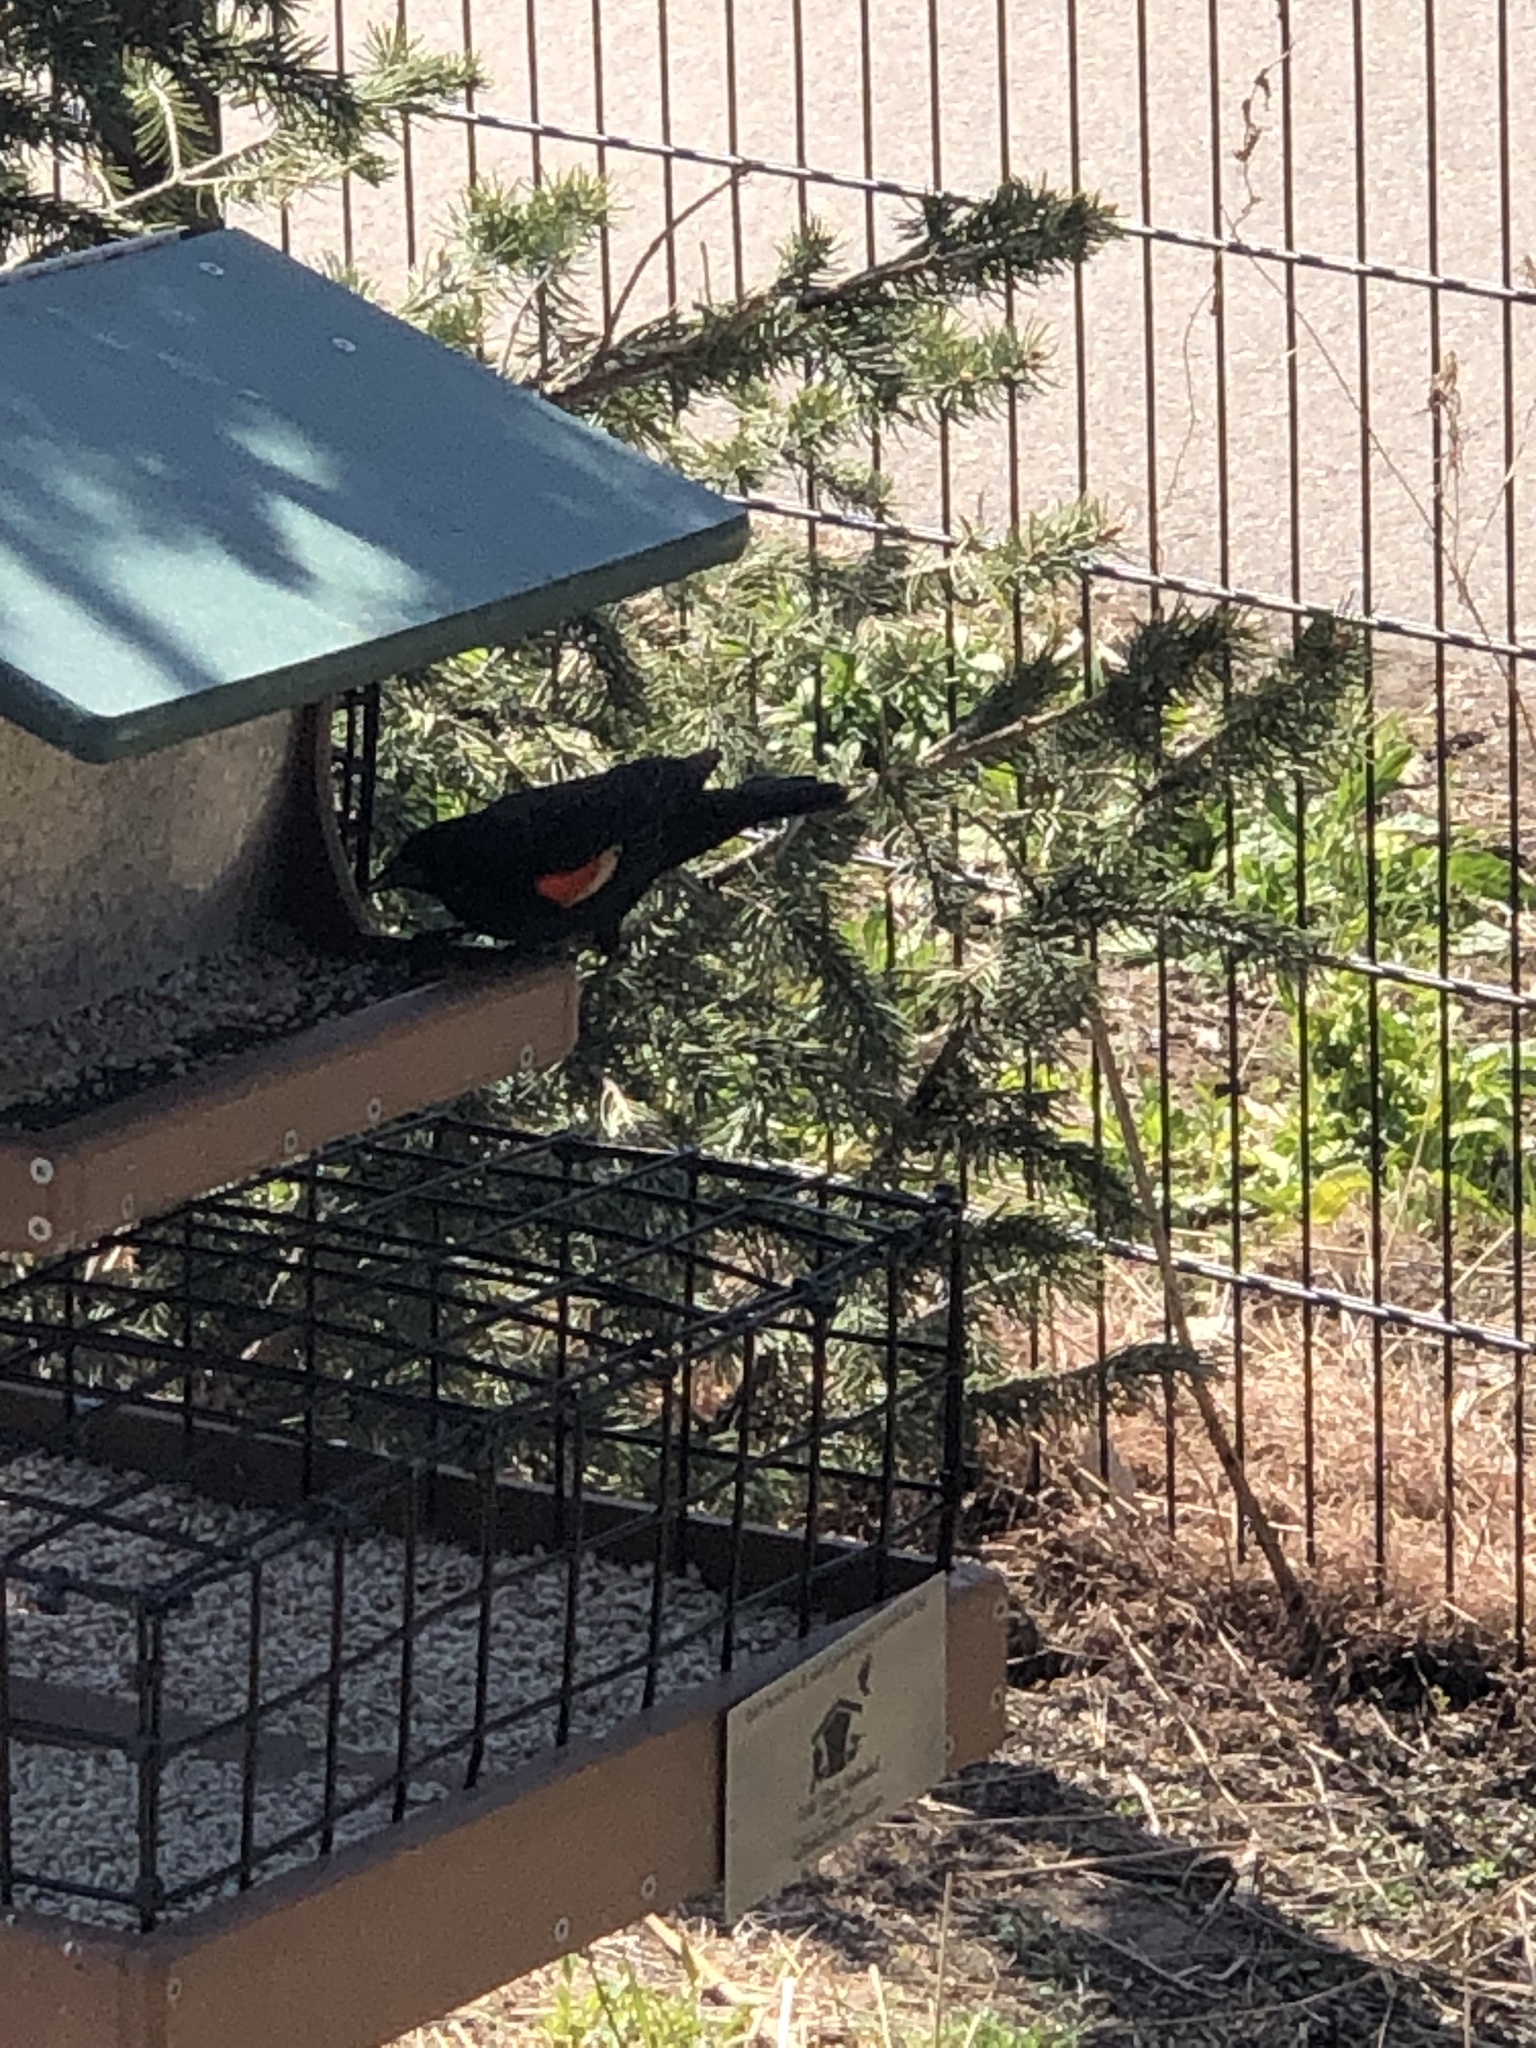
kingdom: Animalia
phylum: Chordata
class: Aves
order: Passeriformes
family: Icteridae
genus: Agelaius
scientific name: Agelaius phoeniceus
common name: Red-winged blackbird
